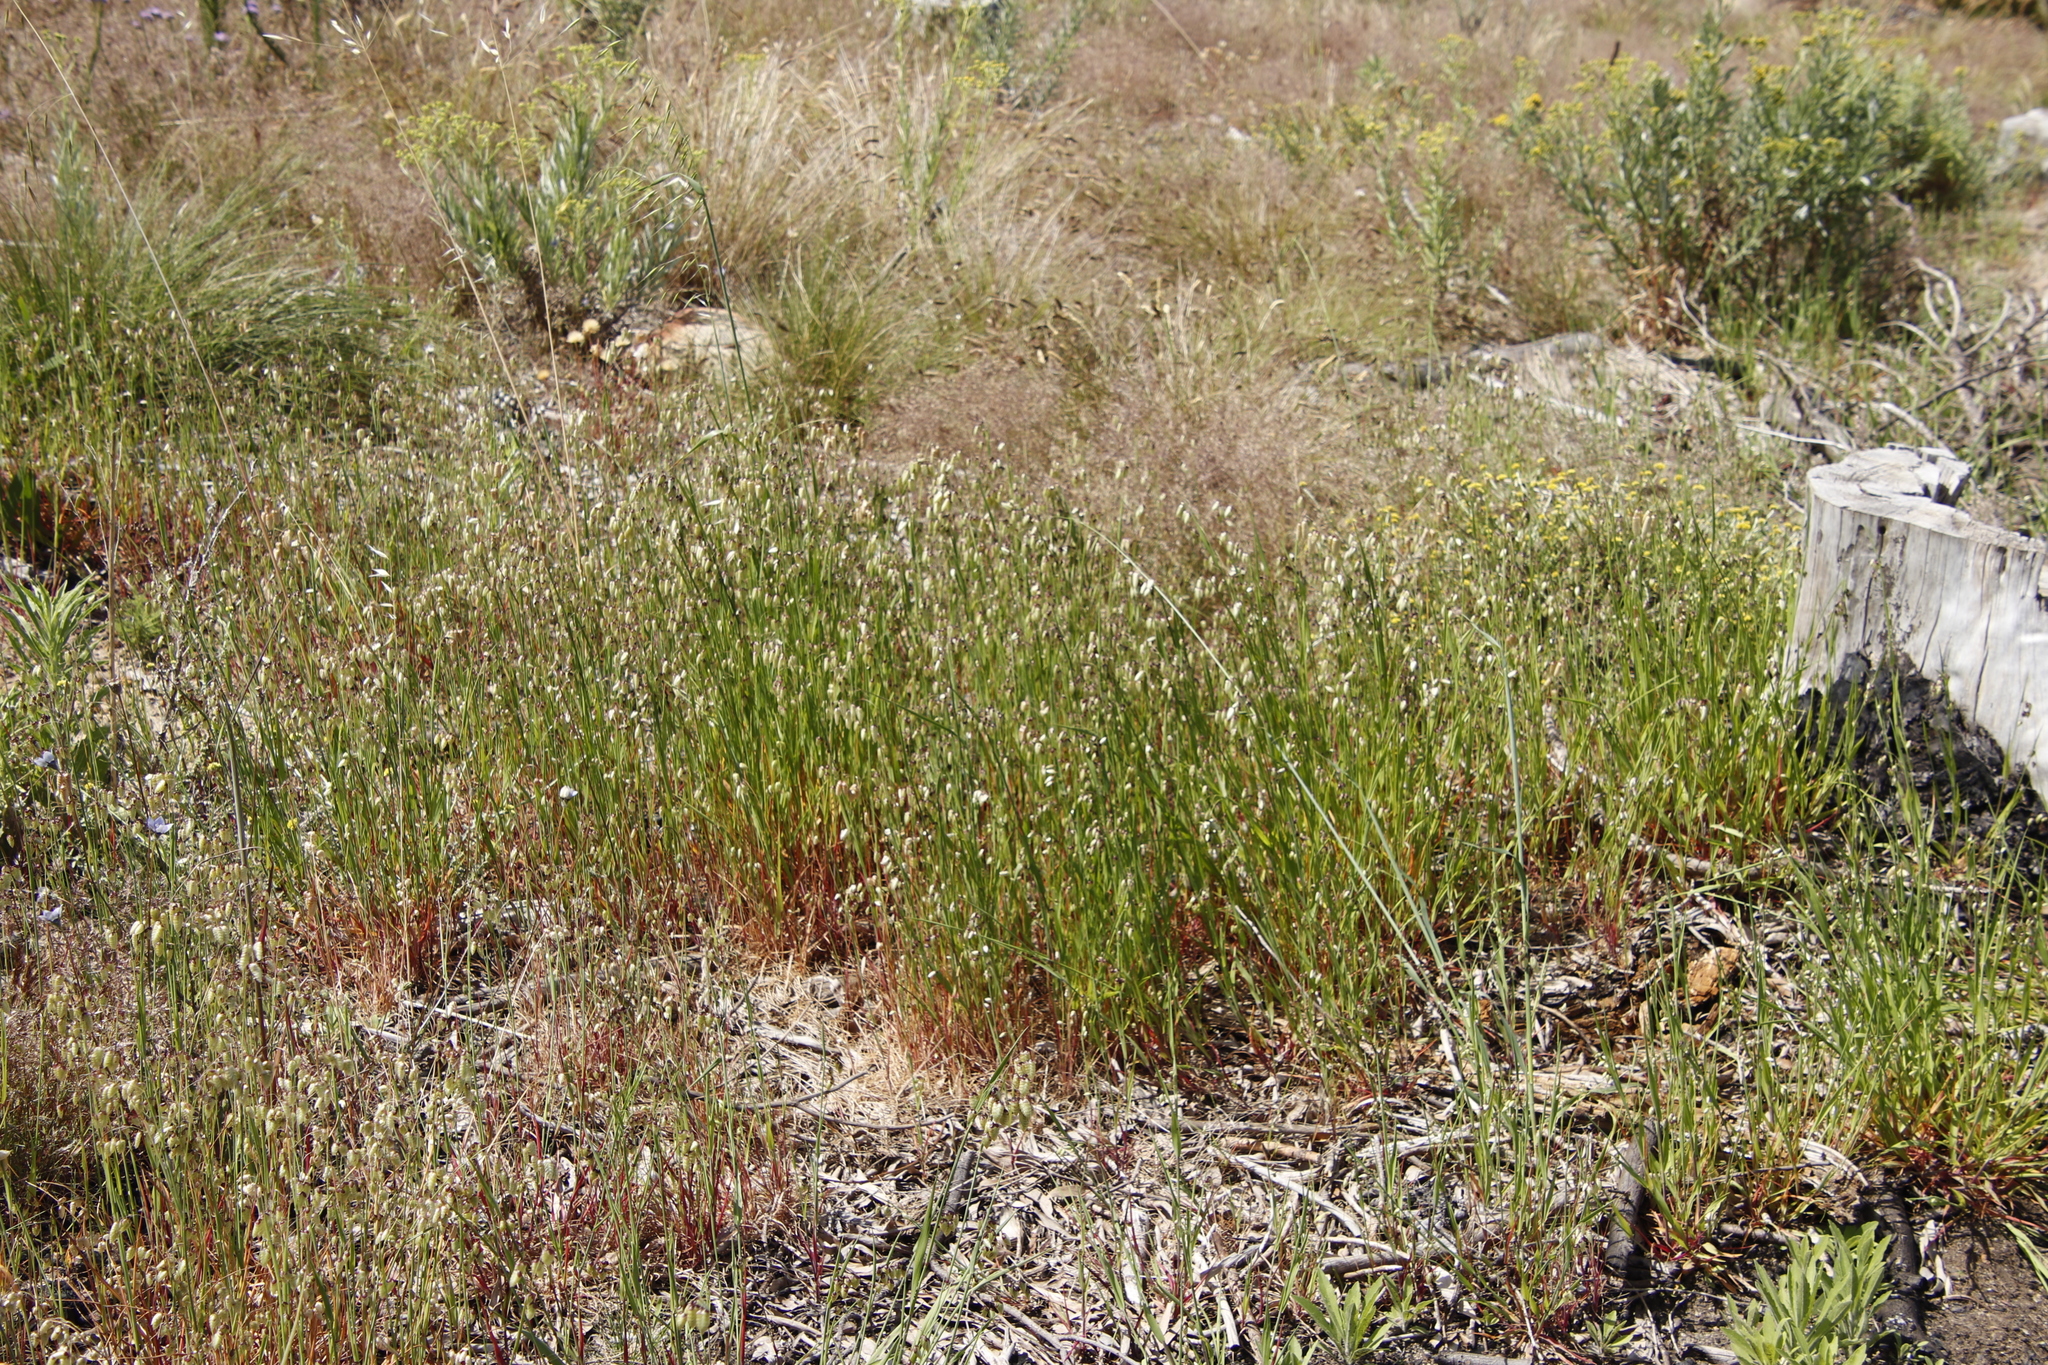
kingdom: Plantae
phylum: Tracheophyta
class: Liliopsida
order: Poales
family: Poaceae
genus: Briza
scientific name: Briza maxima
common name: Big quakinggrass
